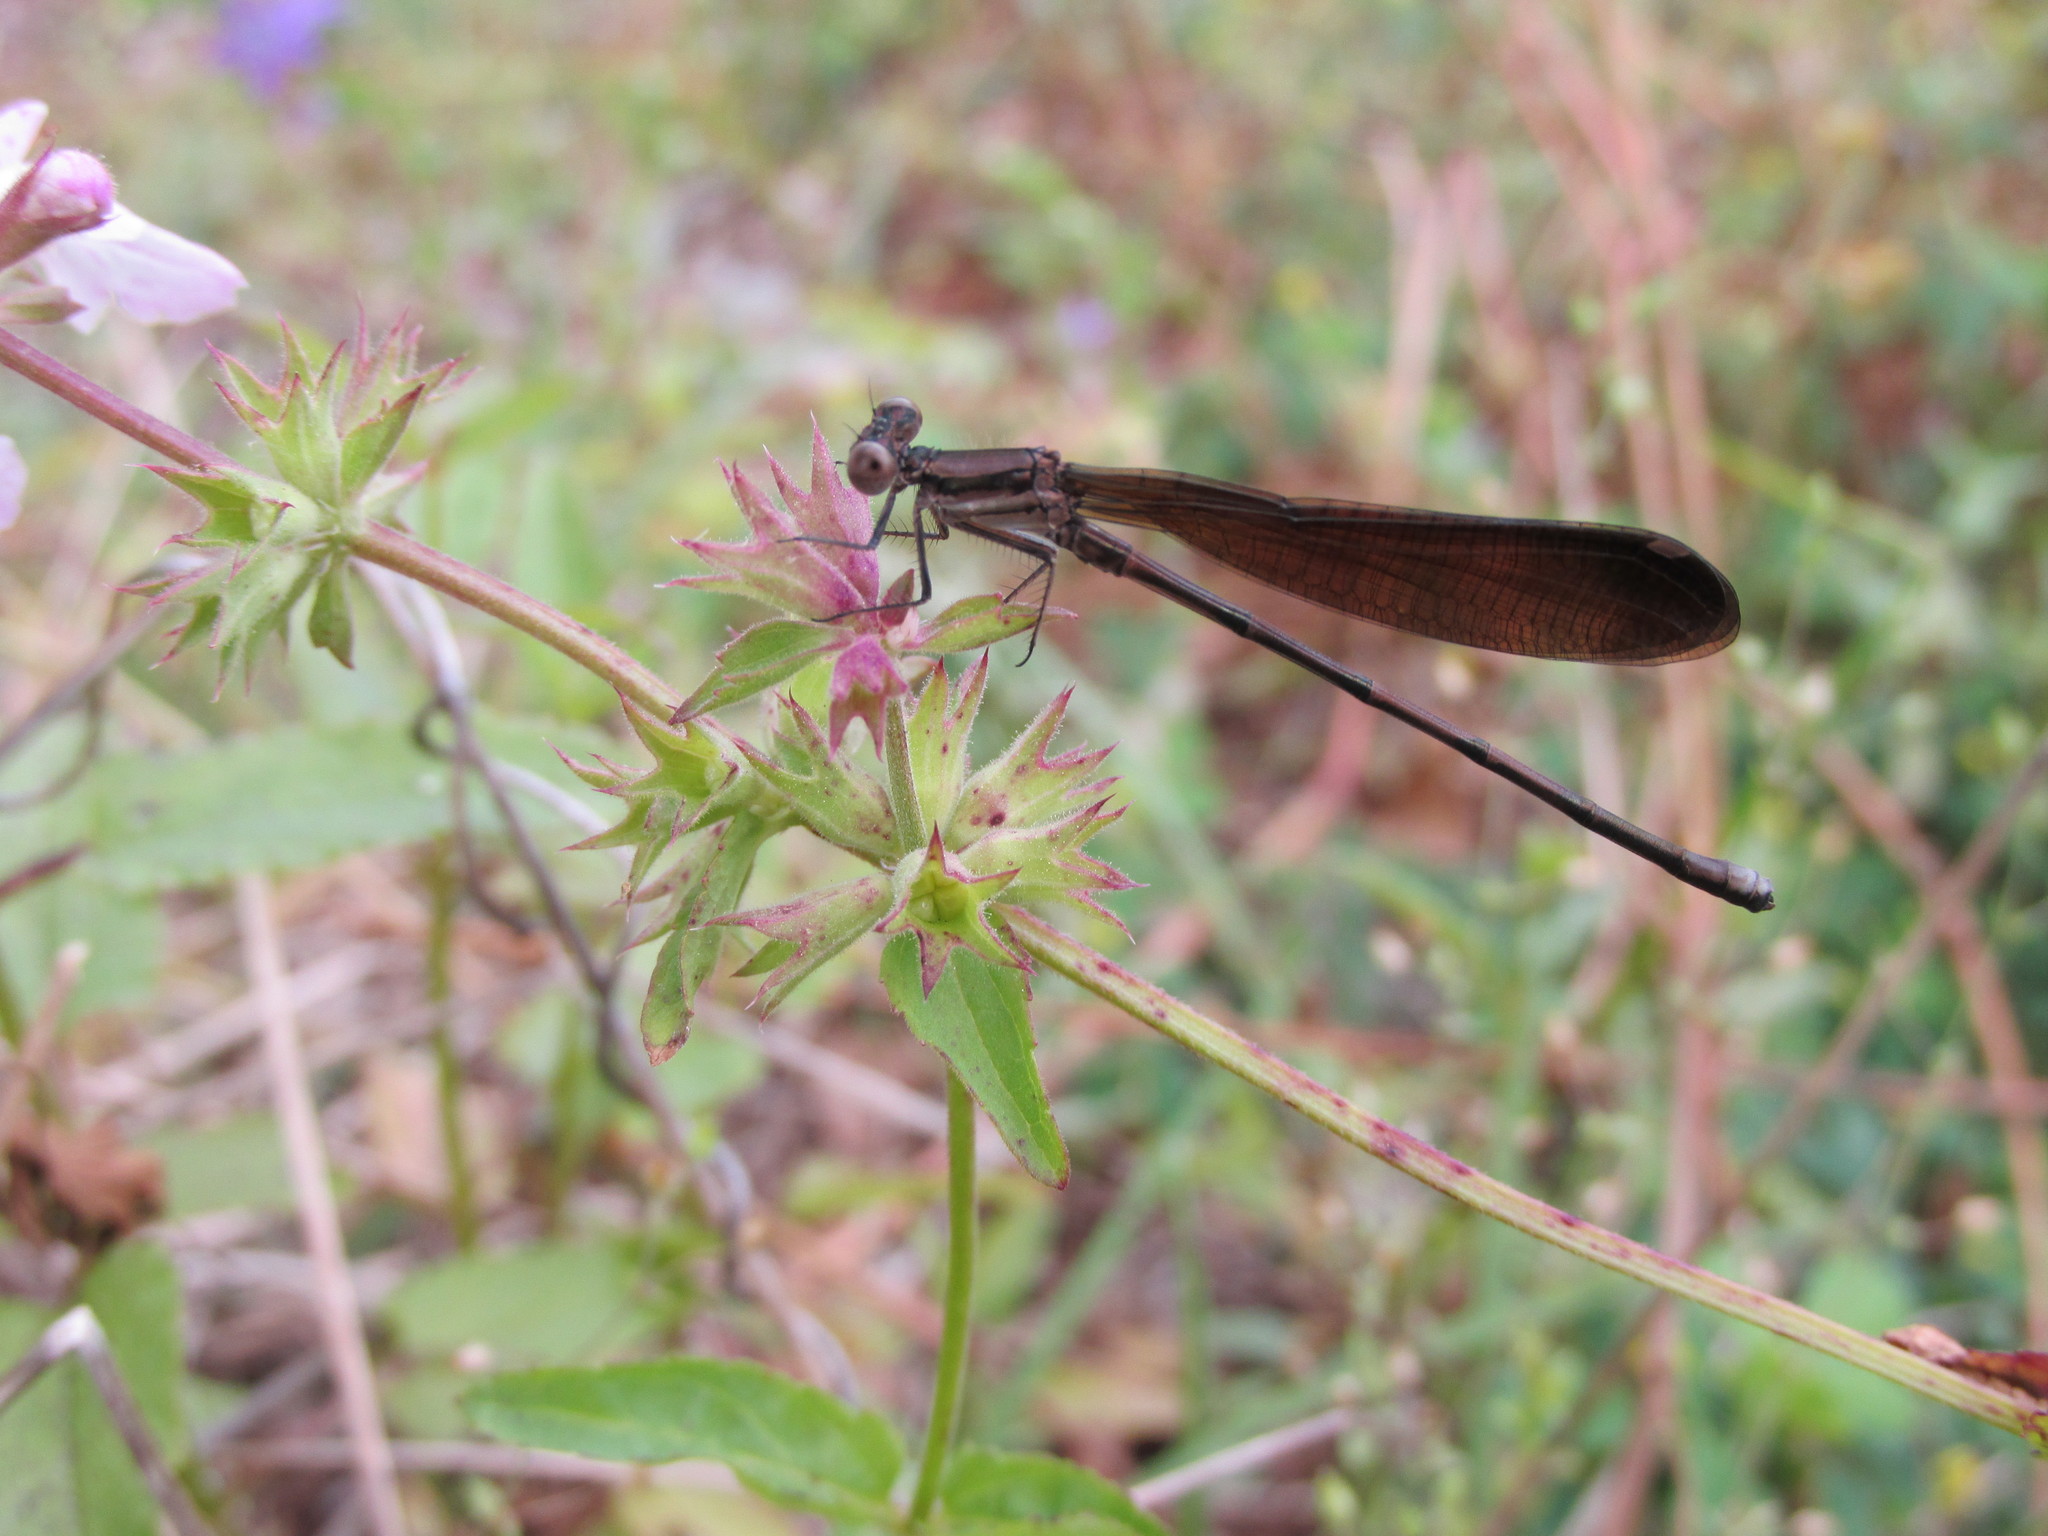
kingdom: Animalia
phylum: Arthropoda
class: Insecta
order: Odonata
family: Coenagrionidae
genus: Argia
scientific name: Argia fumipennis
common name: Variable dancer
